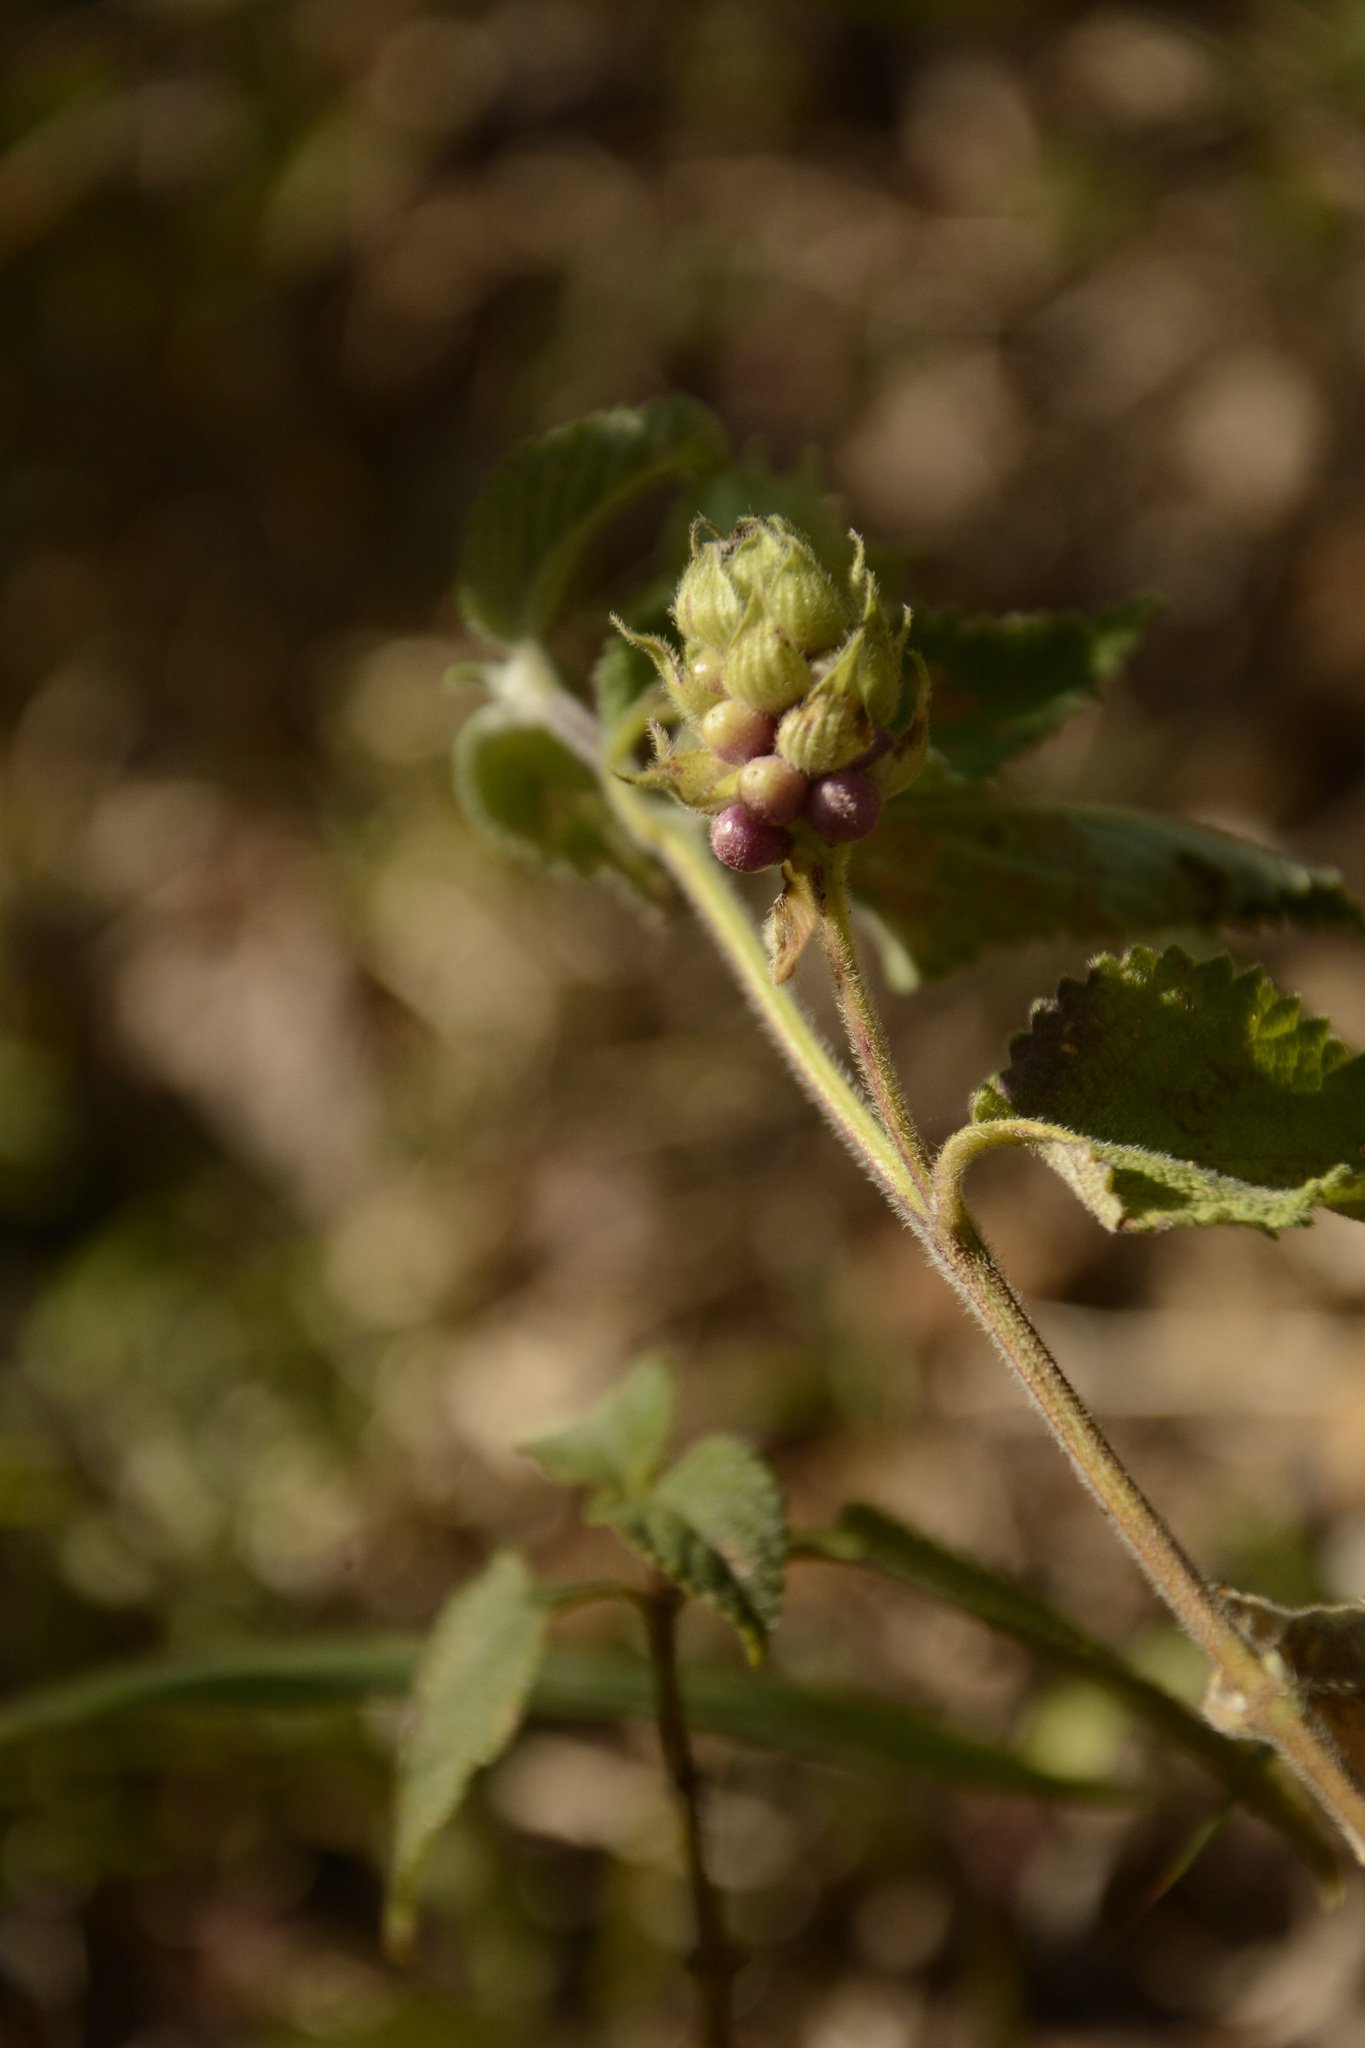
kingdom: Plantae
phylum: Tracheophyta
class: Magnoliopsida
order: Lamiales
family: Verbenaceae
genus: Lantana
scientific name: Lantana indica
